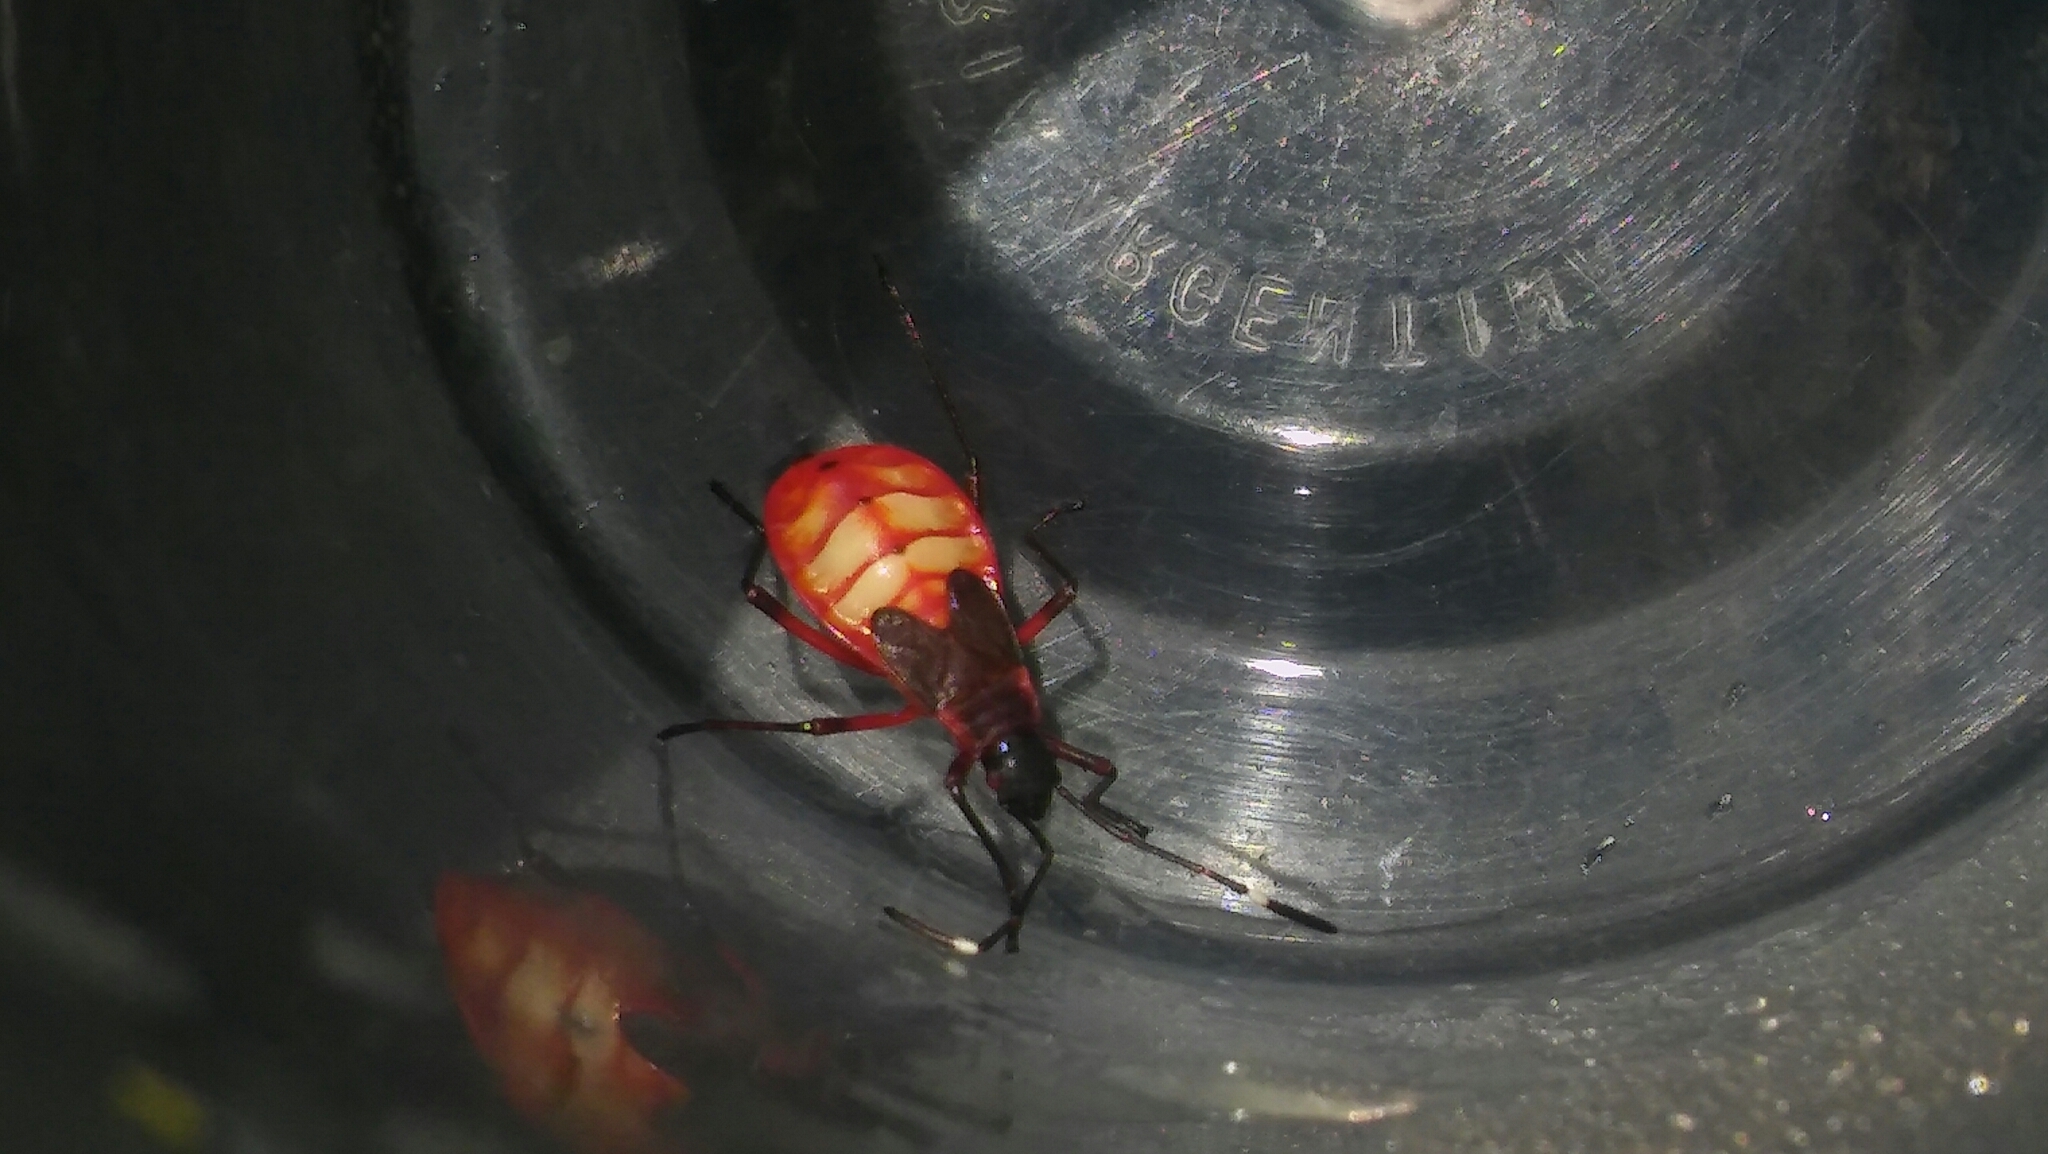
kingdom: Animalia
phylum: Arthropoda
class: Insecta
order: Hemiptera
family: Pyrrhocoridae
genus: Dysdercus
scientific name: Dysdercus albofasciatus
